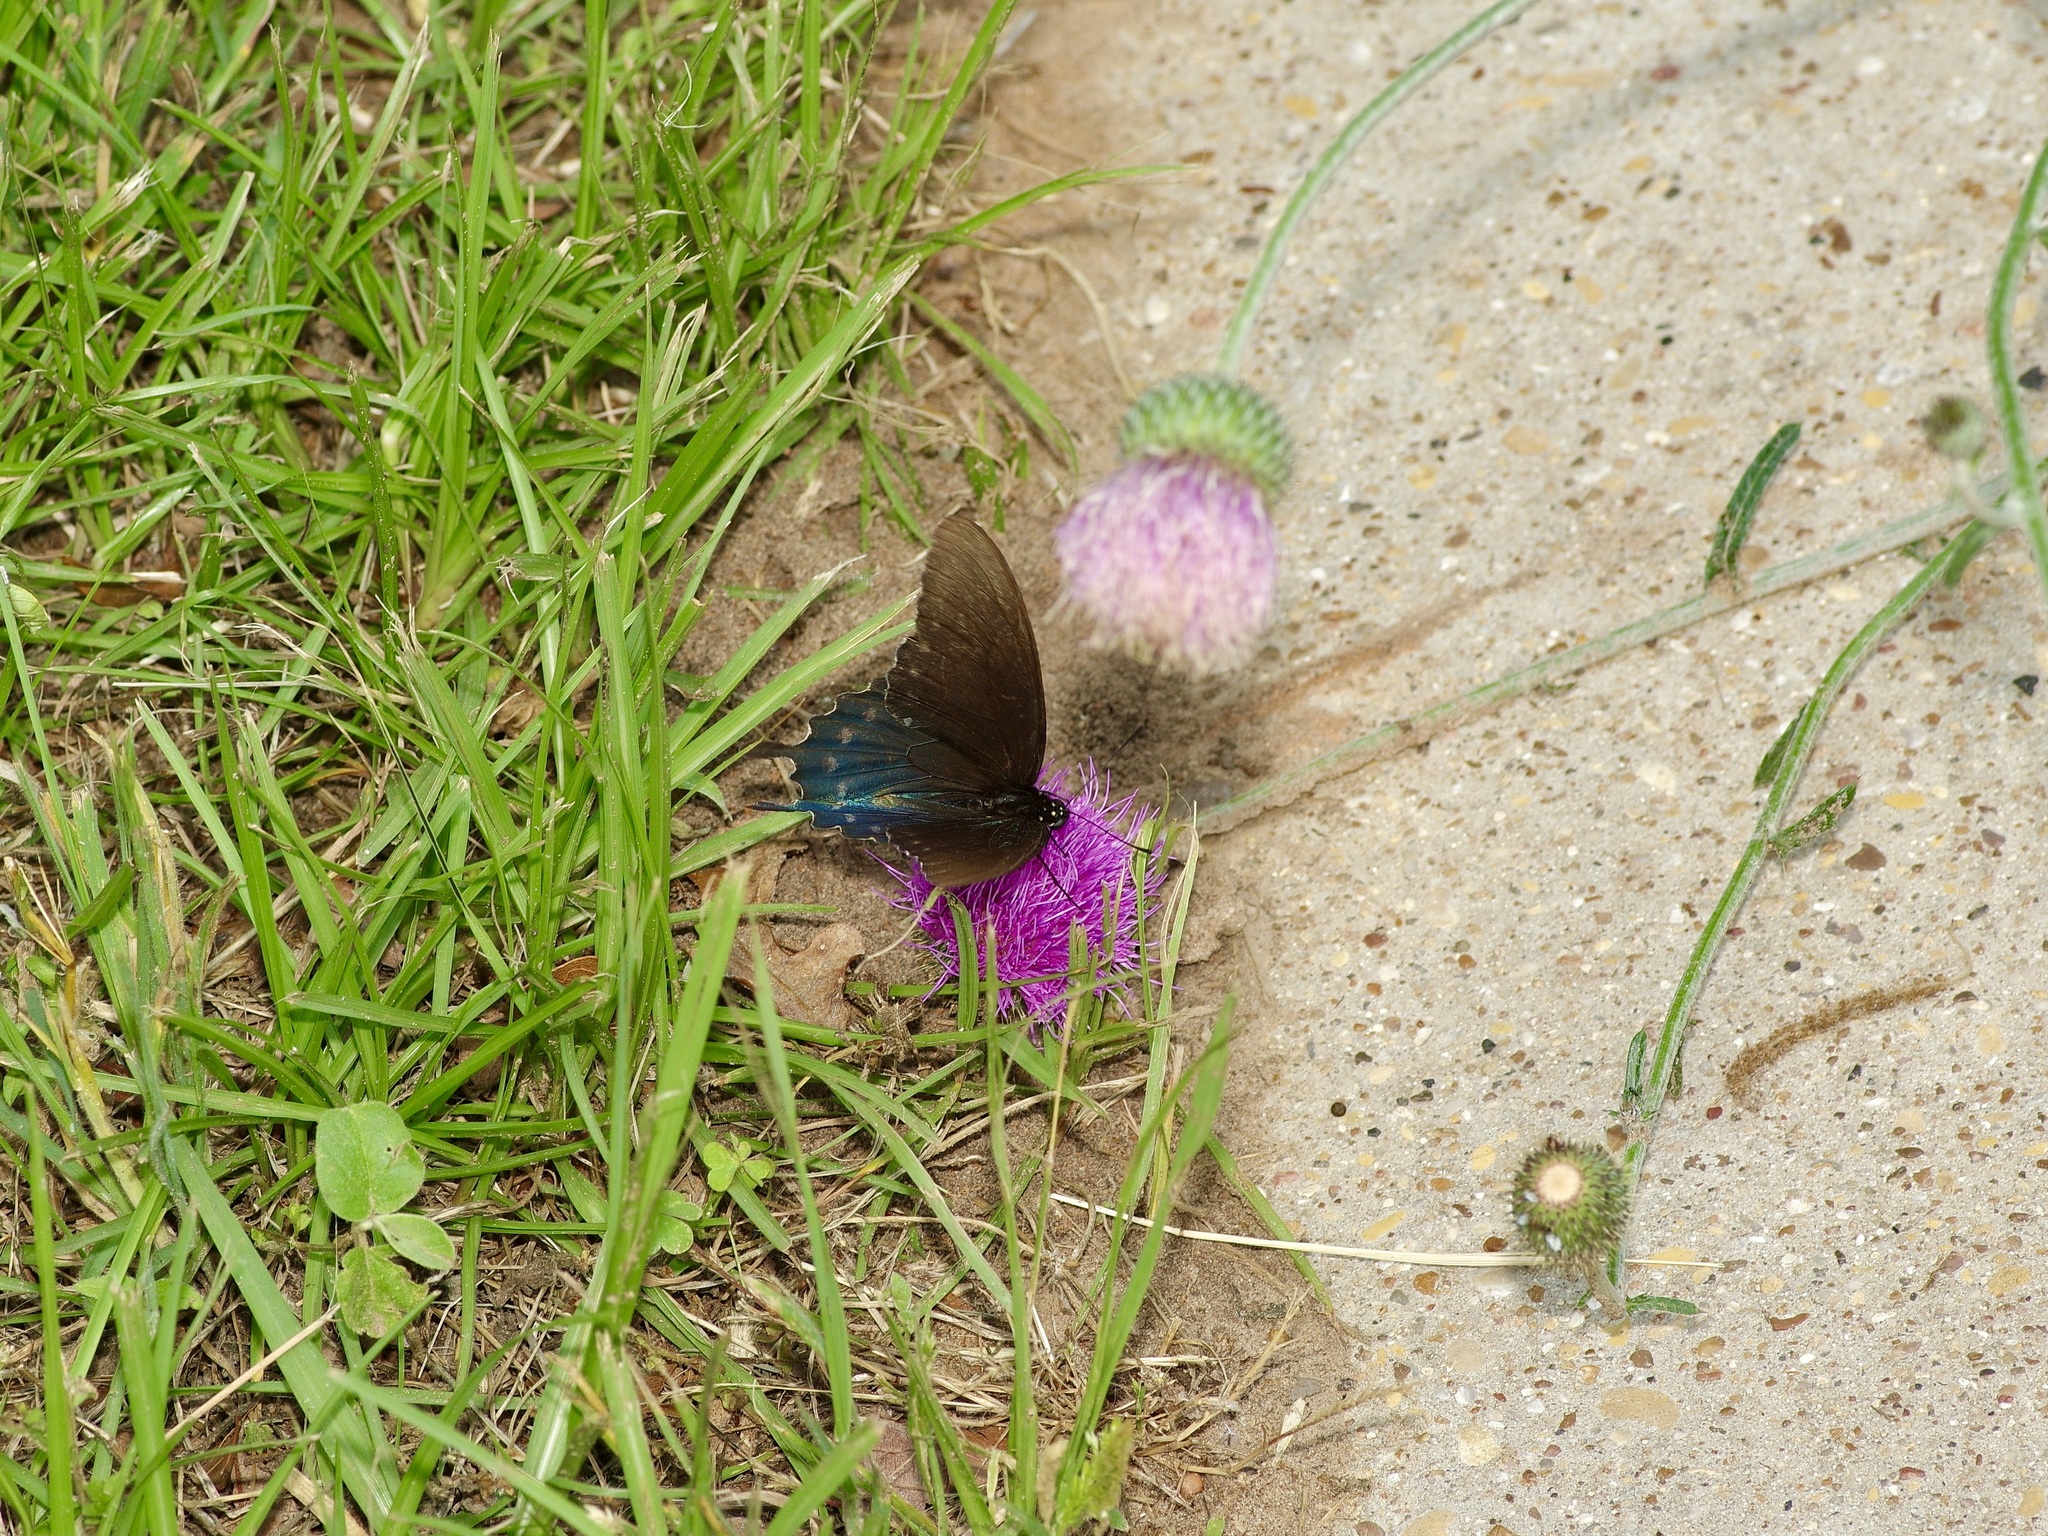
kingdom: Animalia
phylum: Arthropoda
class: Insecta
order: Lepidoptera
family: Papilionidae
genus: Battus
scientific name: Battus philenor
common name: Pipevine swallowtail
